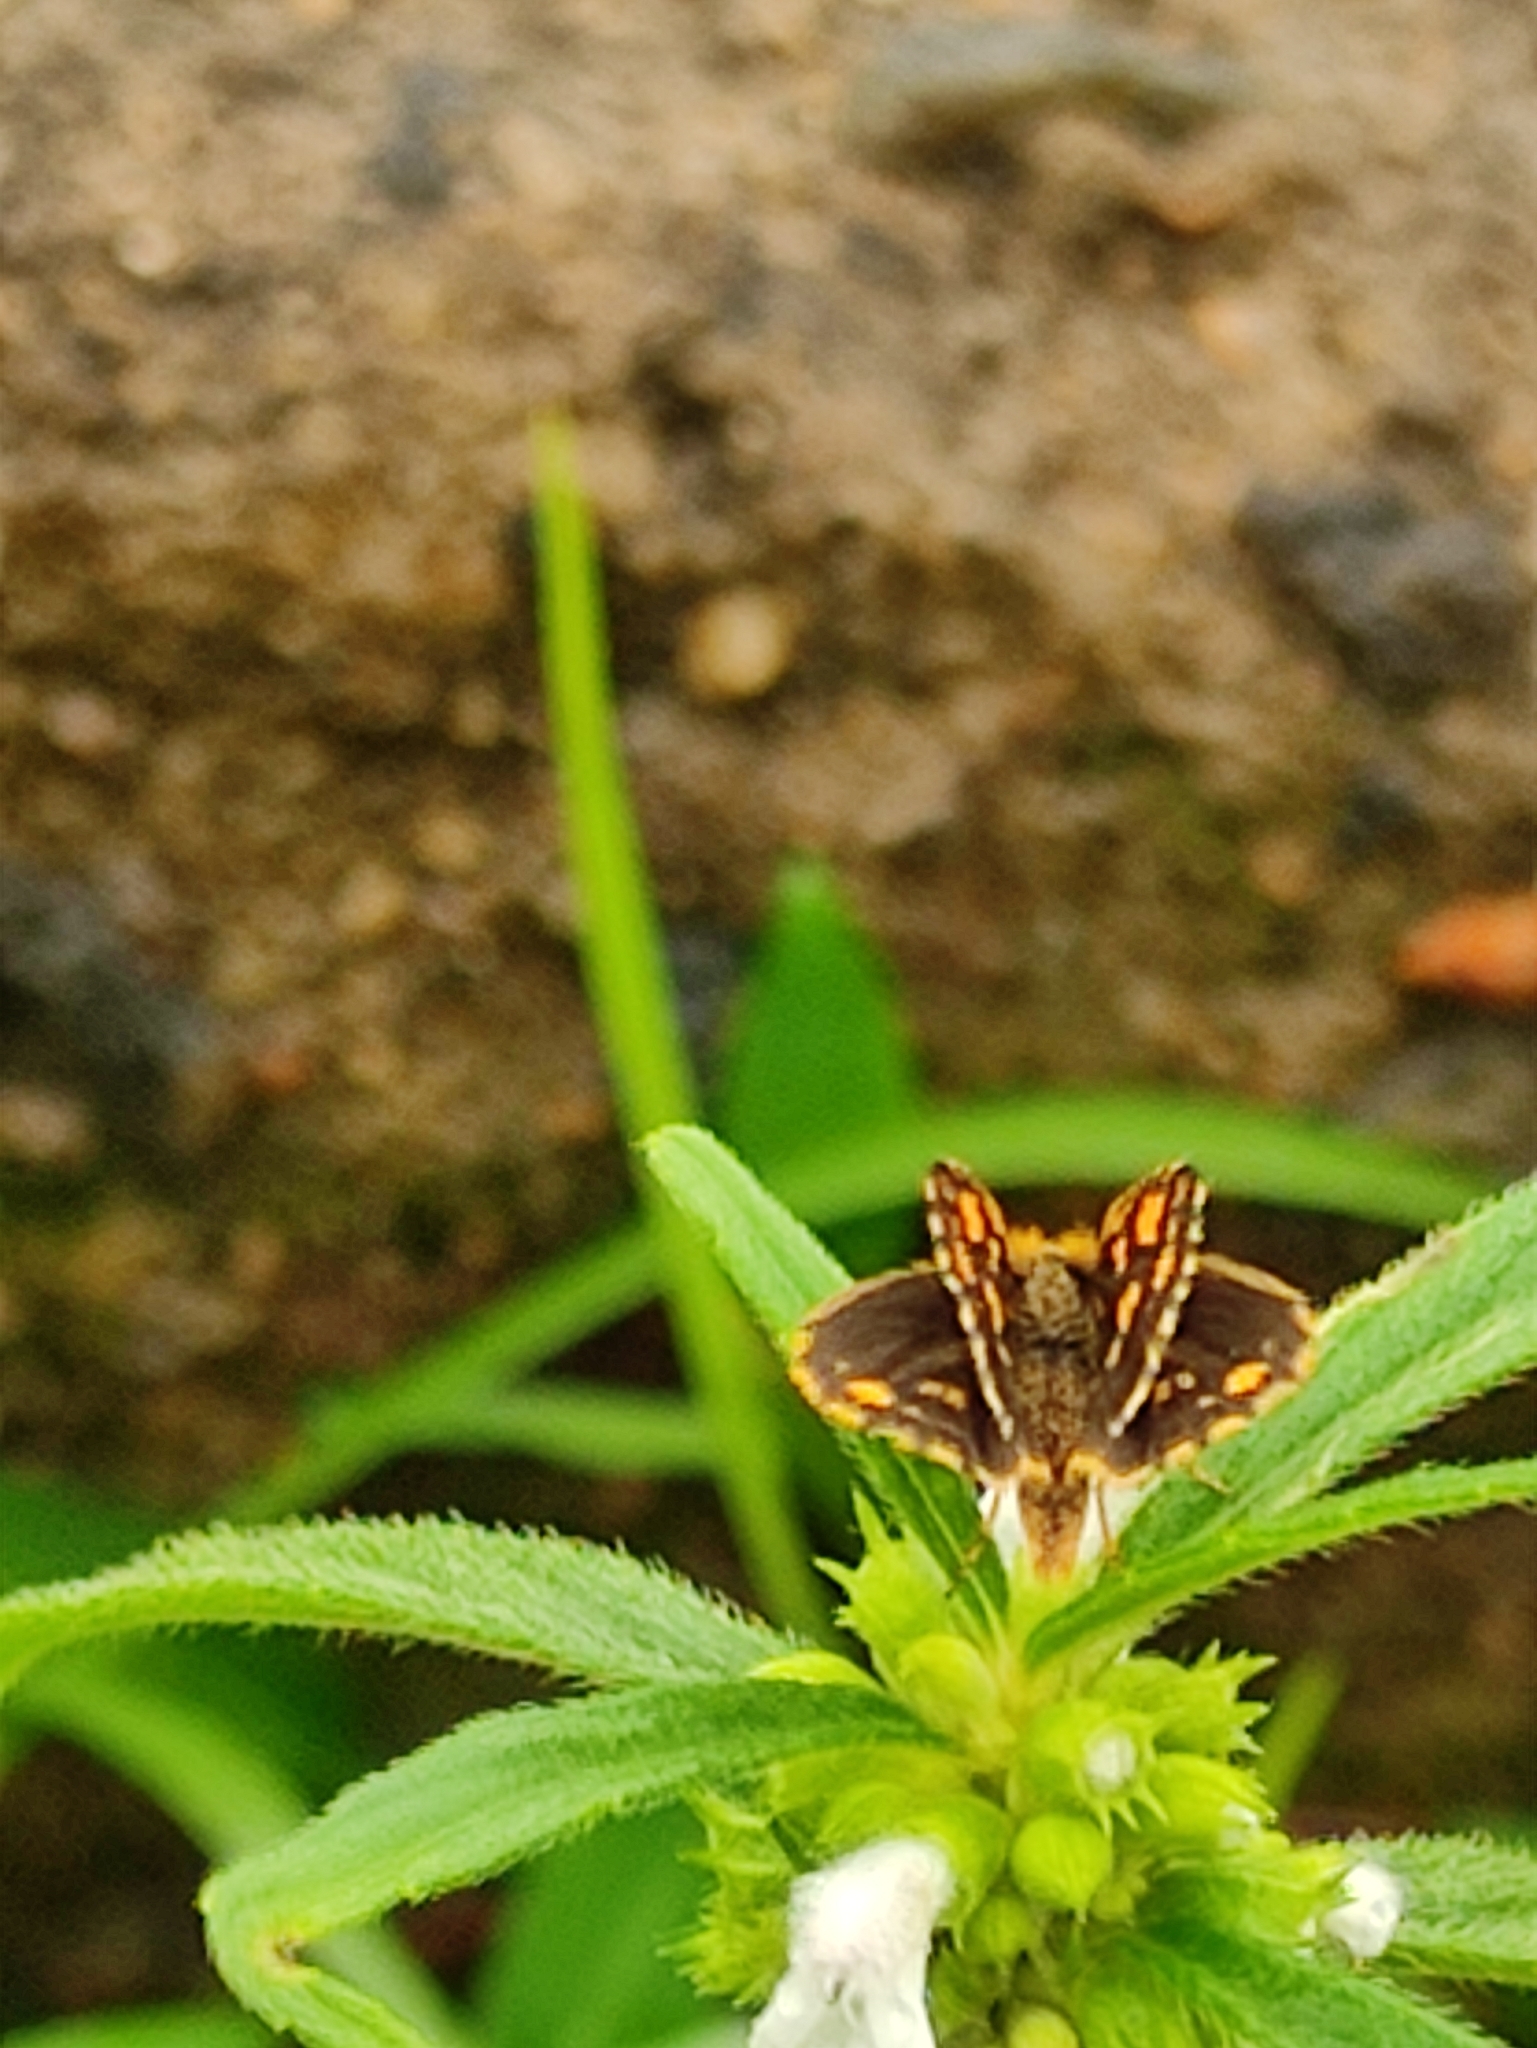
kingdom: Animalia
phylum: Arthropoda
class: Insecta
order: Lepidoptera
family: Hesperiidae
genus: Ampittia
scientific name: Ampittia dioscorides
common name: Common bush hopper
